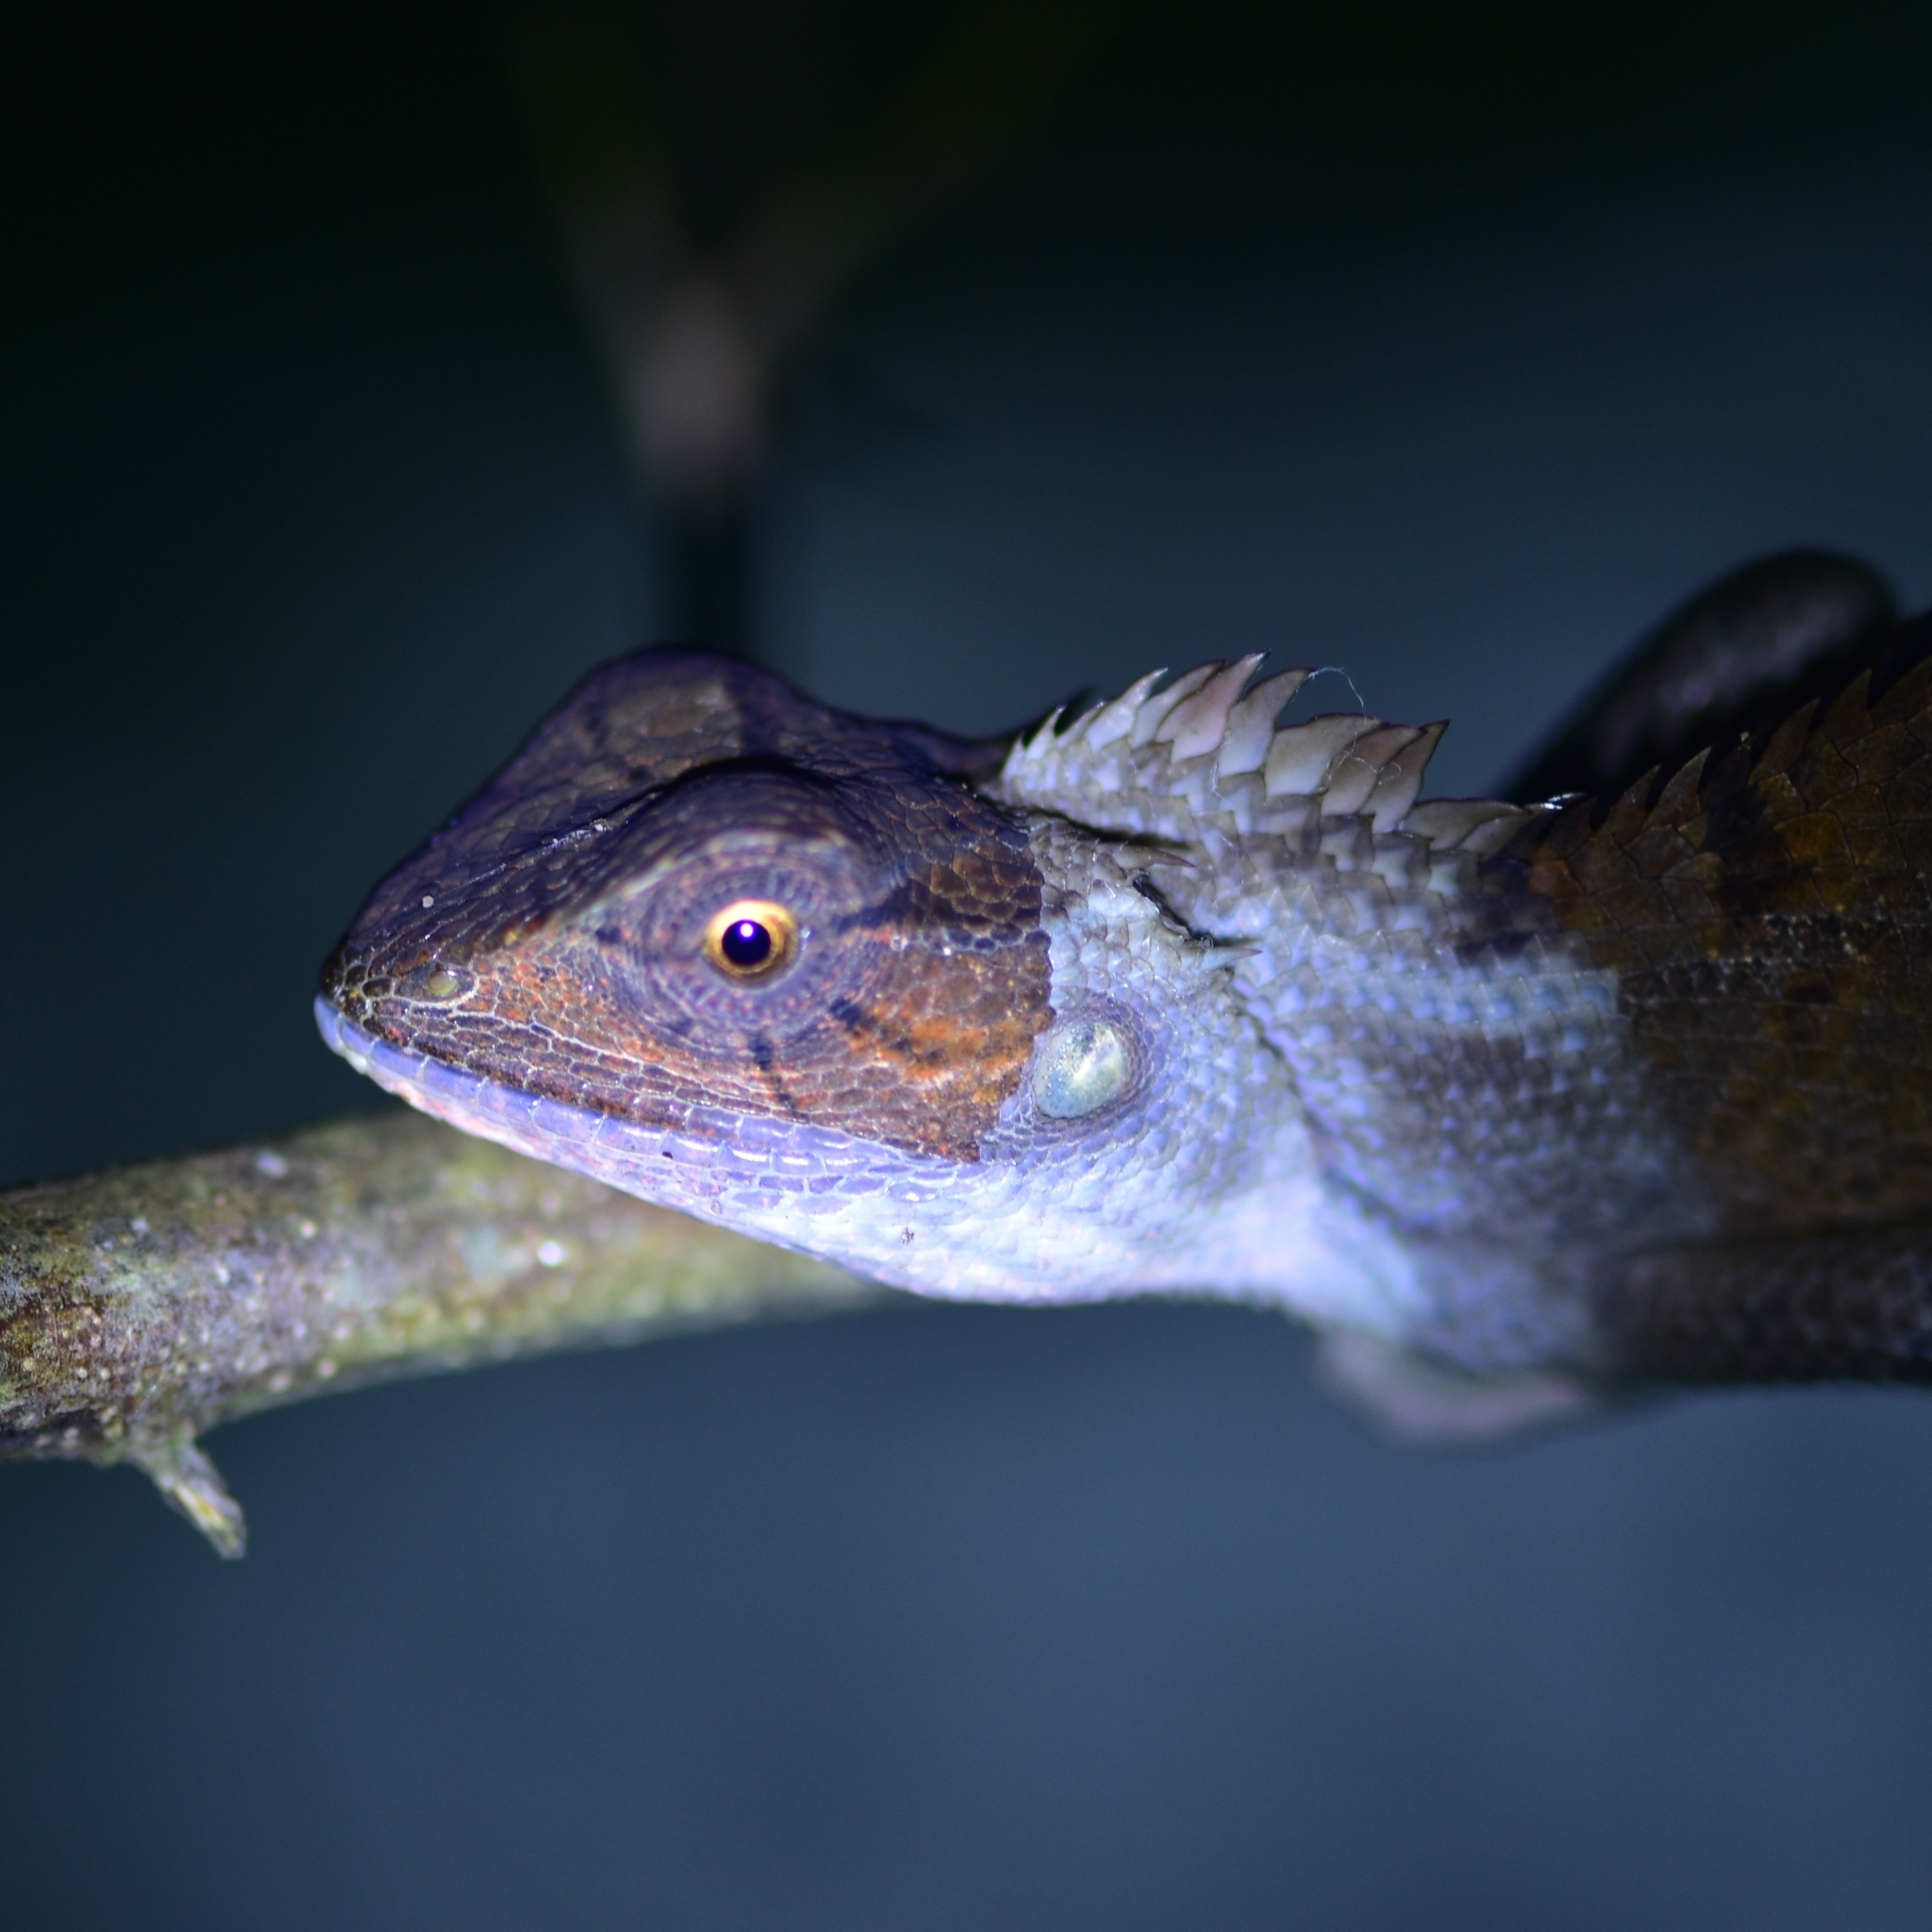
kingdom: Animalia
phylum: Chordata
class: Squamata
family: Agamidae
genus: Calotes
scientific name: Calotes versicolor
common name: Oriental garden lizard
